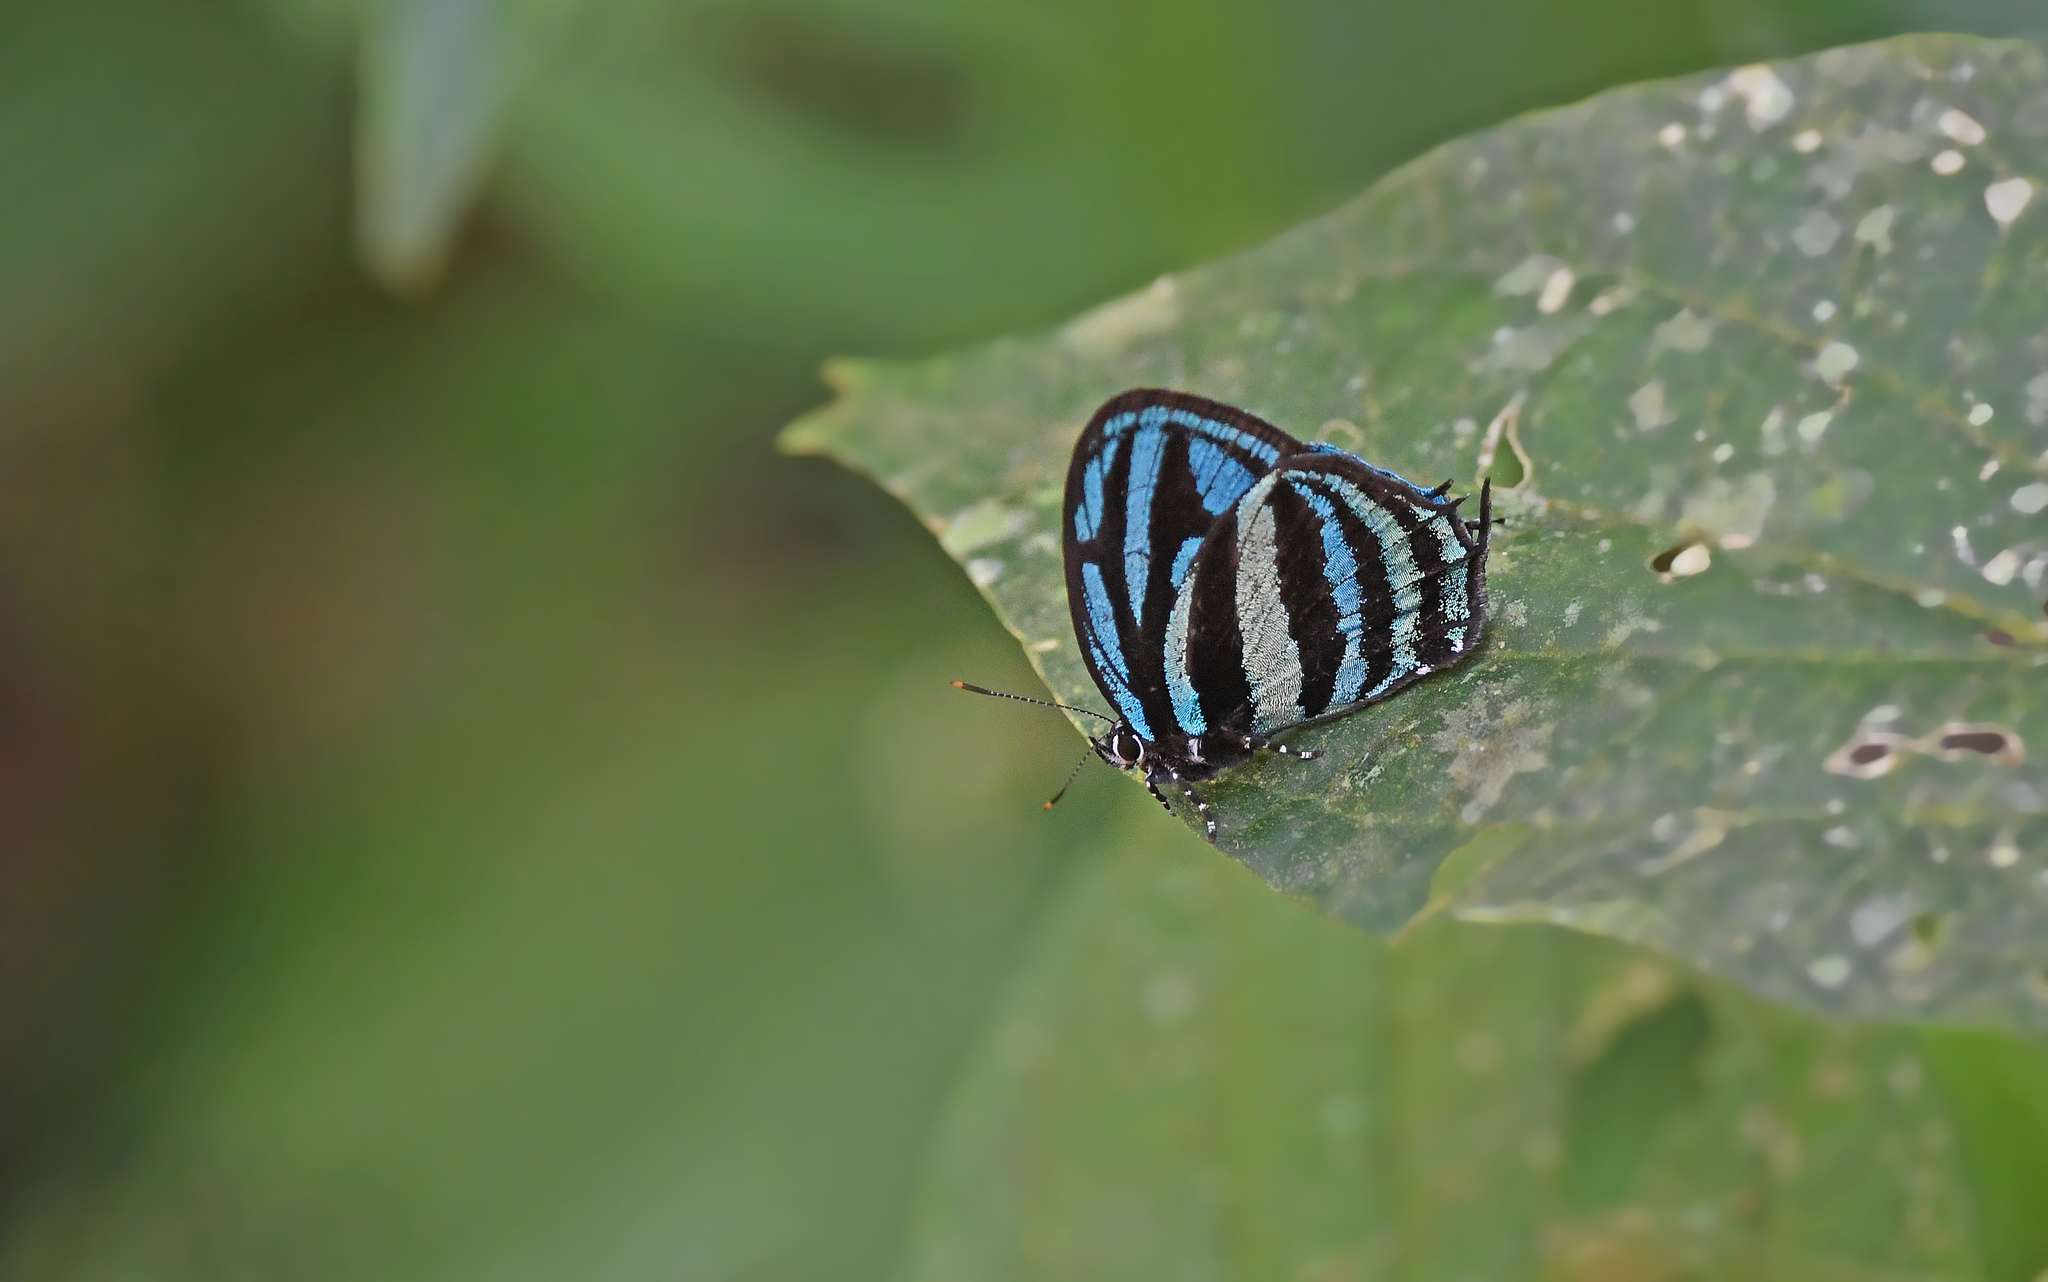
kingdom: Animalia
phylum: Arthropoda
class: Insecta
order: Lepidoptera
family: Lycaenidae
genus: Thestius
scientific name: Thestius
